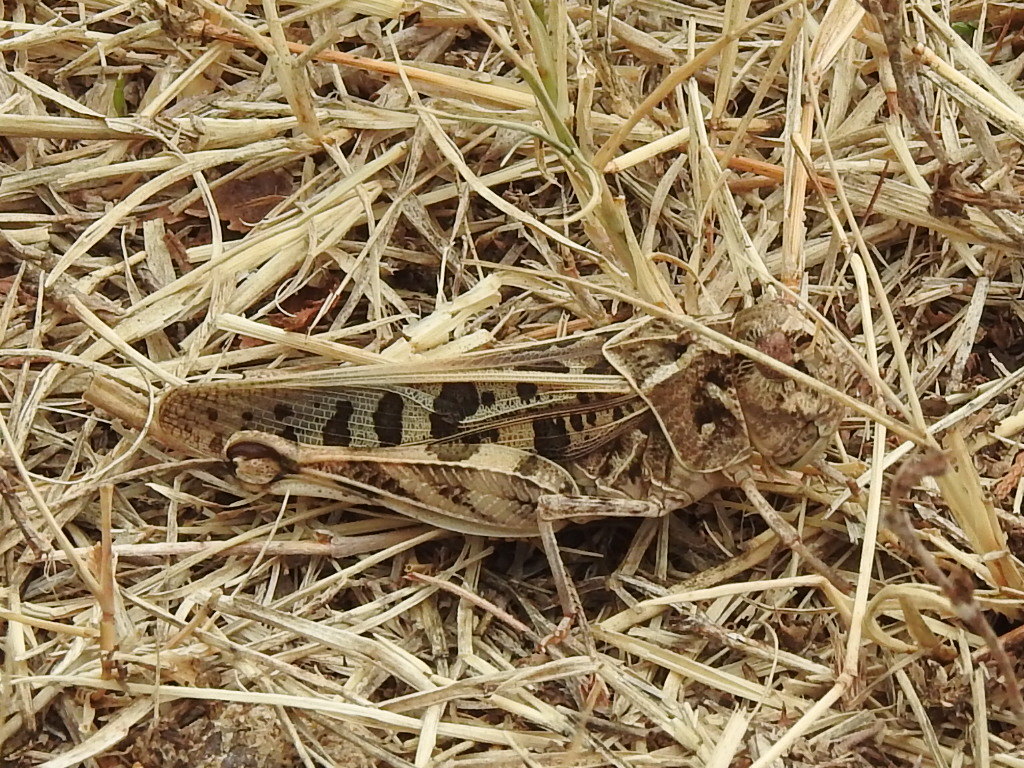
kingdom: Animalia
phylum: Arthropoda
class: Insecta
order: Orthoptera
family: Acrididae
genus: Hippiscus
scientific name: Hippiscus ocelote
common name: Wrinkled grasshopper
